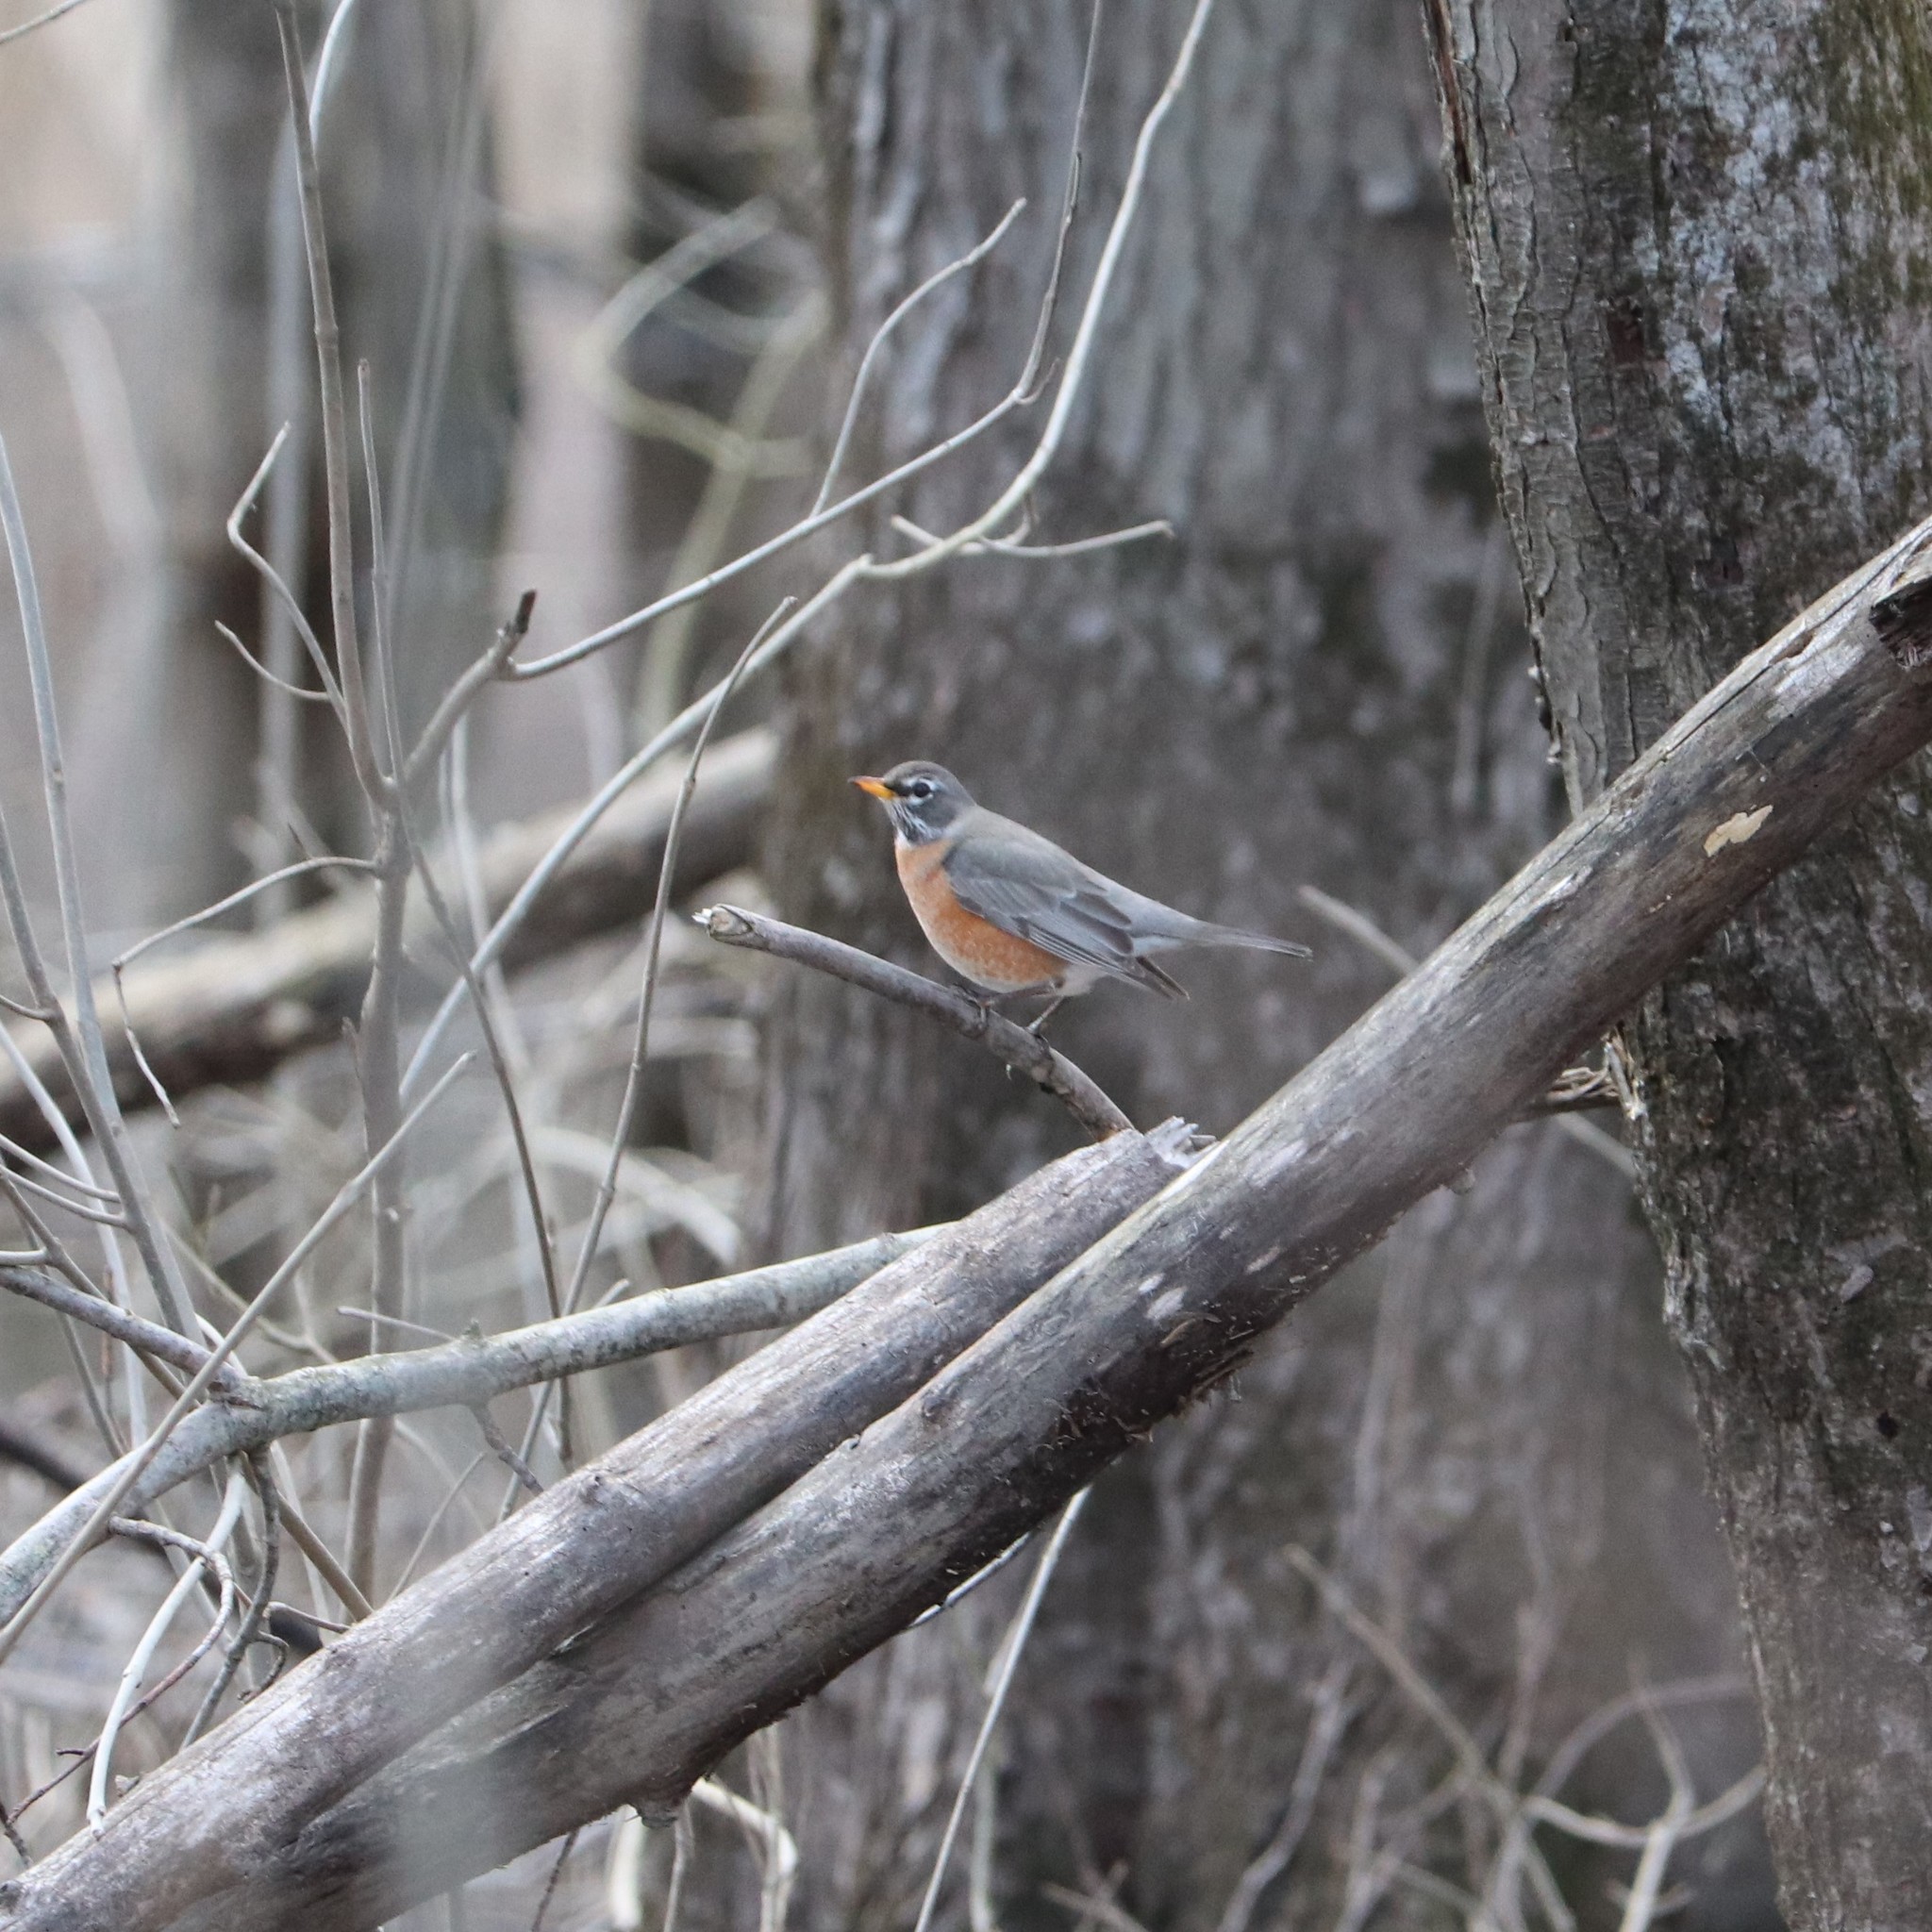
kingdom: Animalia
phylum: Chordata
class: Aves
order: Passeriformes
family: Turdidae
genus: Turdus
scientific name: Turdus migratorius
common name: American robin
